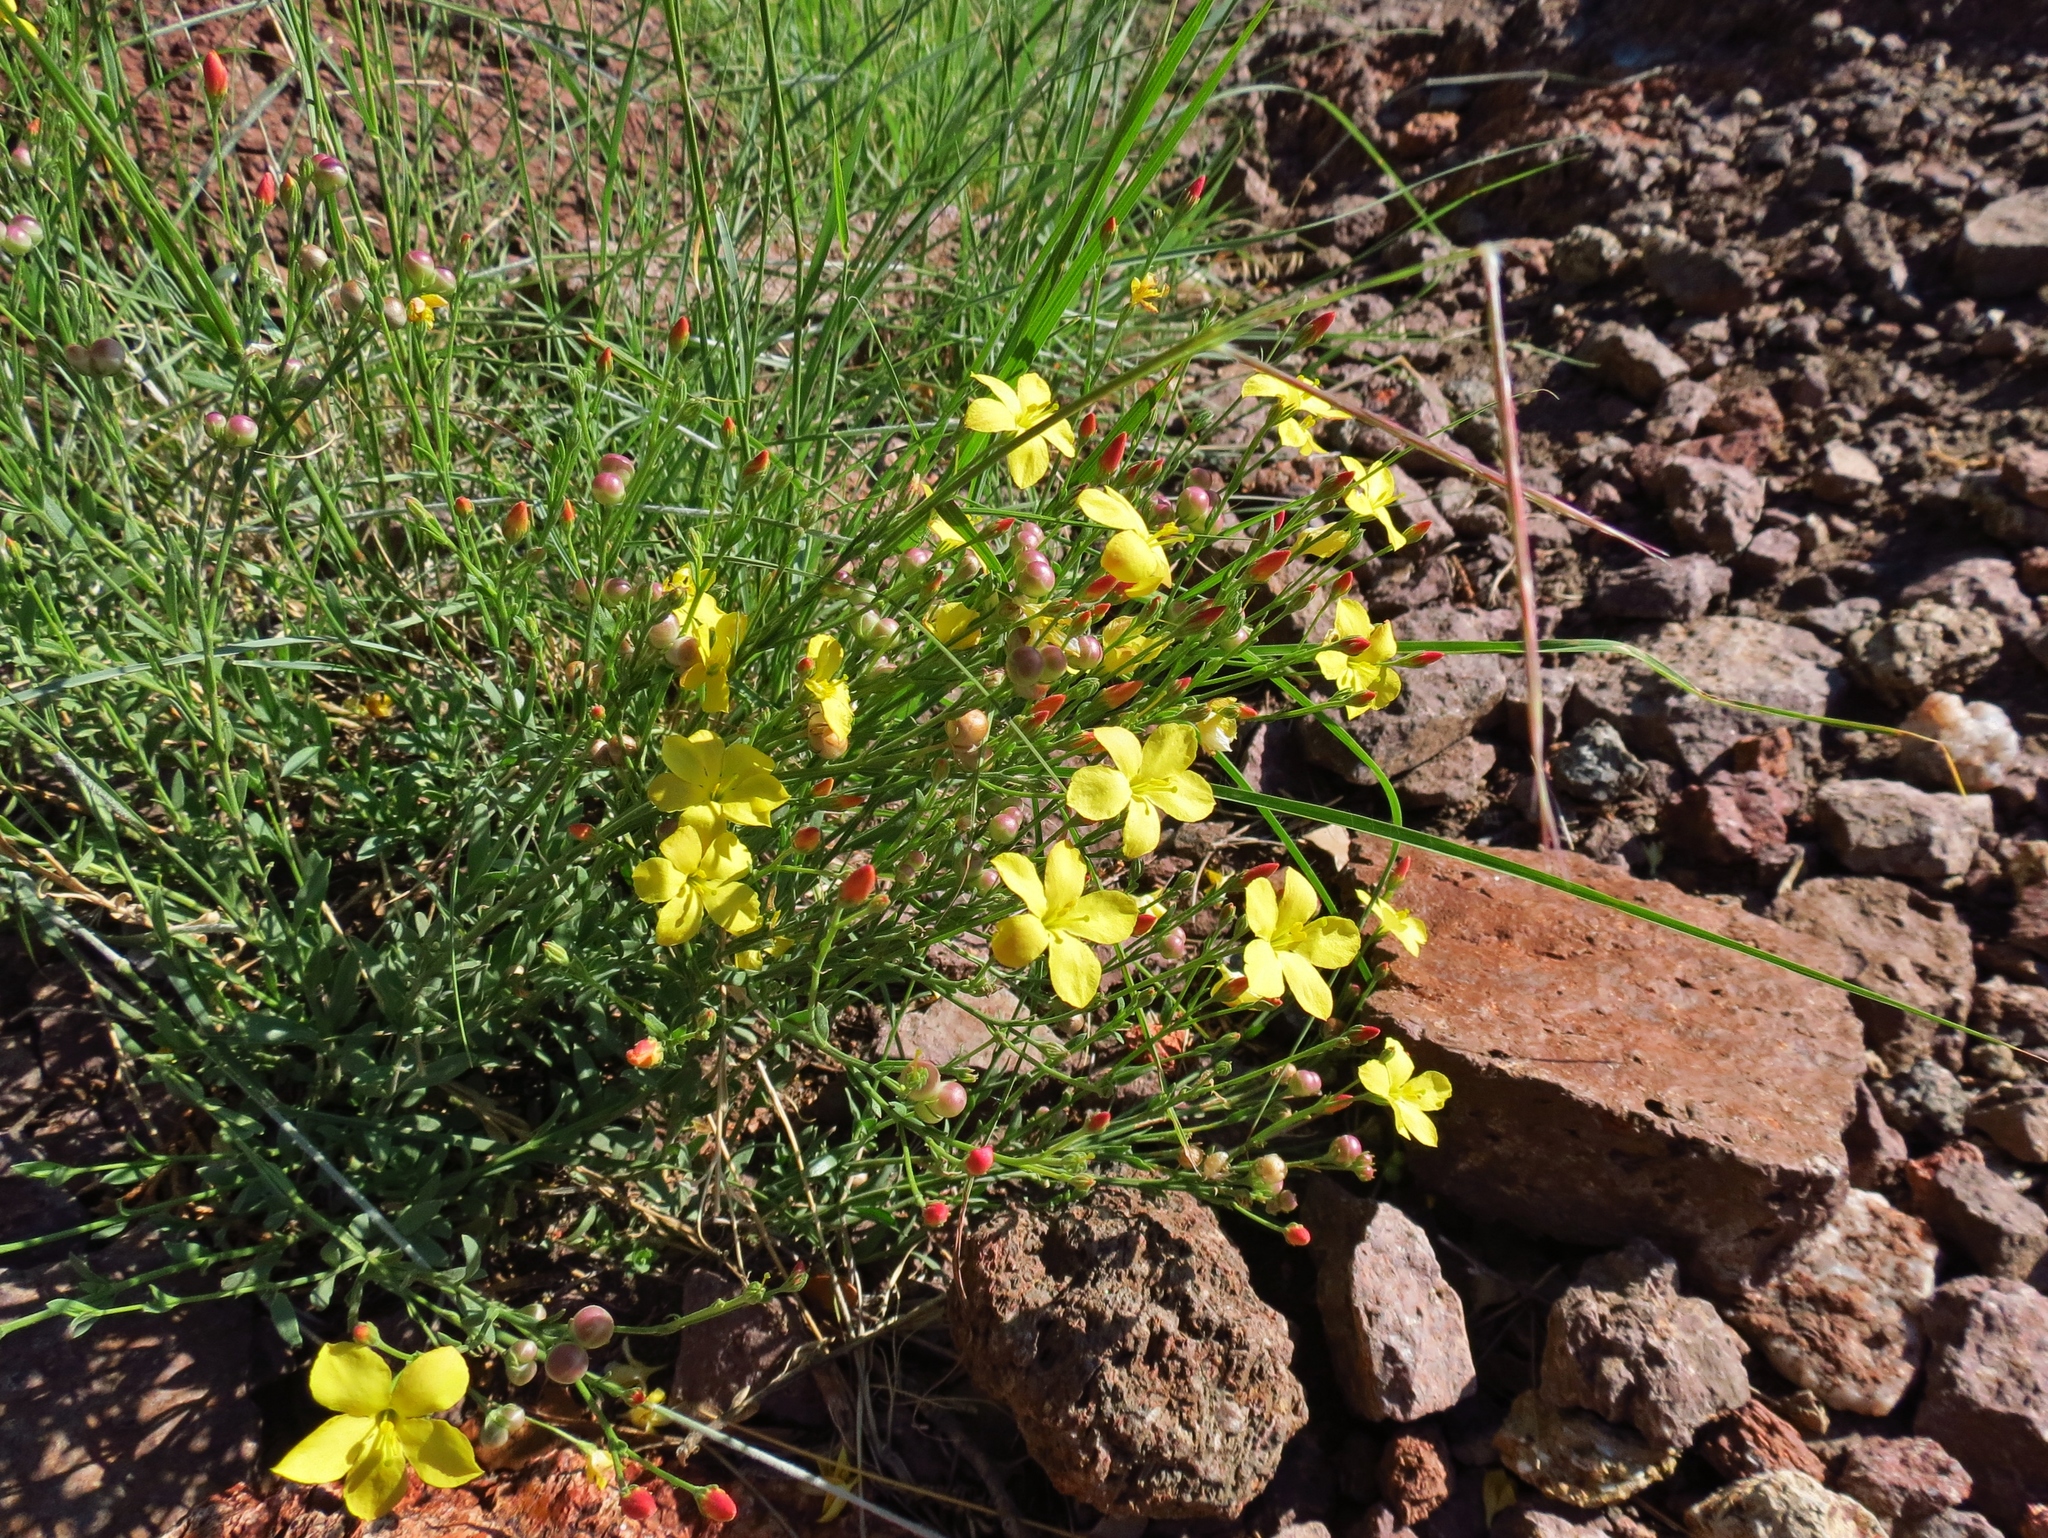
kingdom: Plantae
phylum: Tracheophyta
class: Magnoliopsida
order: Lamiales
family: Oleaceae
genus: Menodora
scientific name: Menodora scabra
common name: Rough menodora
